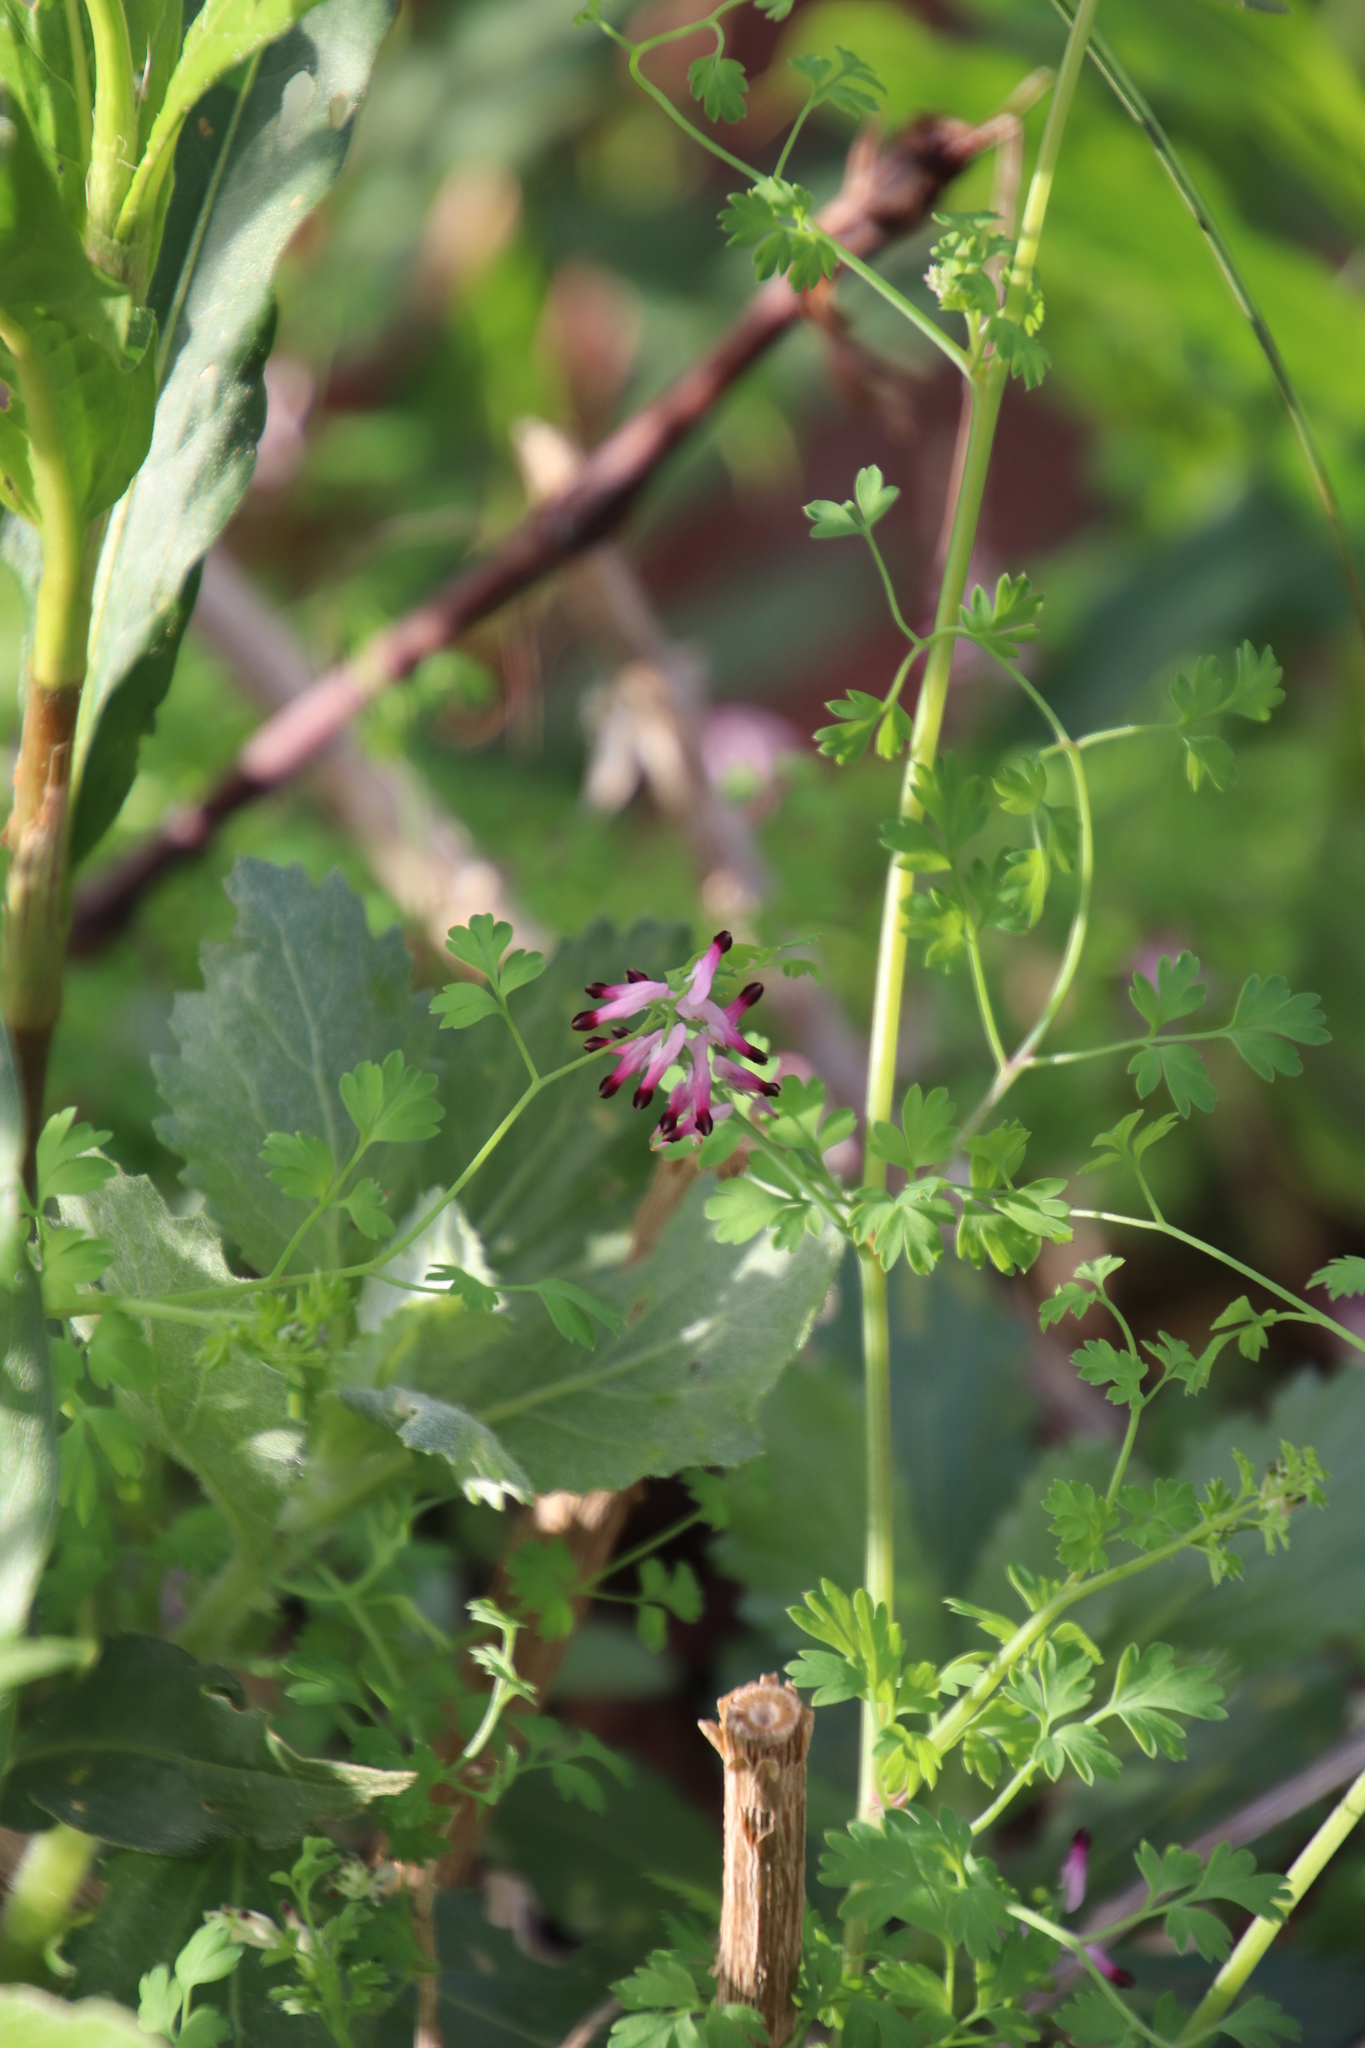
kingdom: Plantae
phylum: Tracheophyta
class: Magnoliopsida
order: Ranunculales
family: Papaveraceae
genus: Fumaria
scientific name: Fumaria muralis
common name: Common ramping-fumitory
